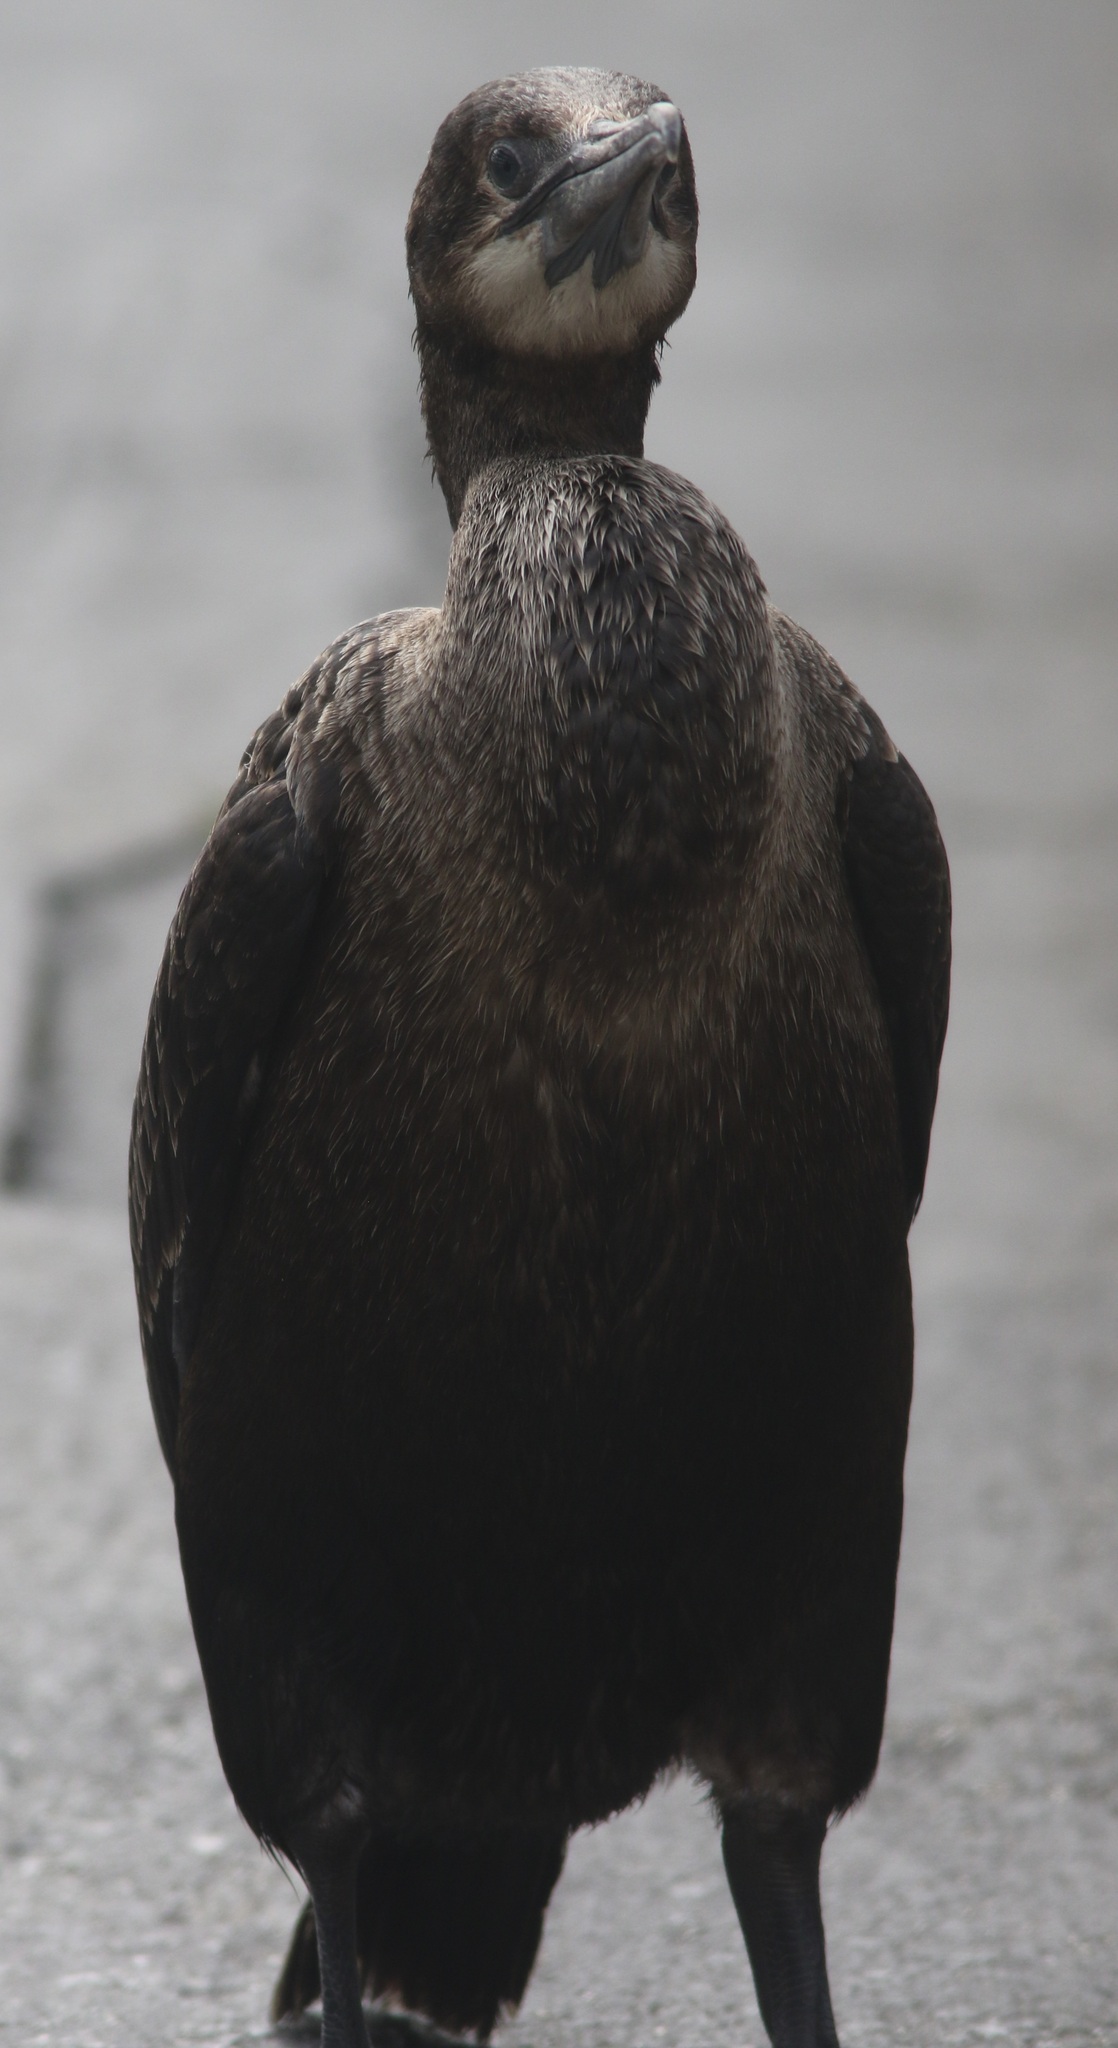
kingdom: Animalia
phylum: Chordata
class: Aves
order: Suliformes
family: Phalacrocoracidae
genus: Urile
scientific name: Urile penicillatus
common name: Brandt's cormorant
